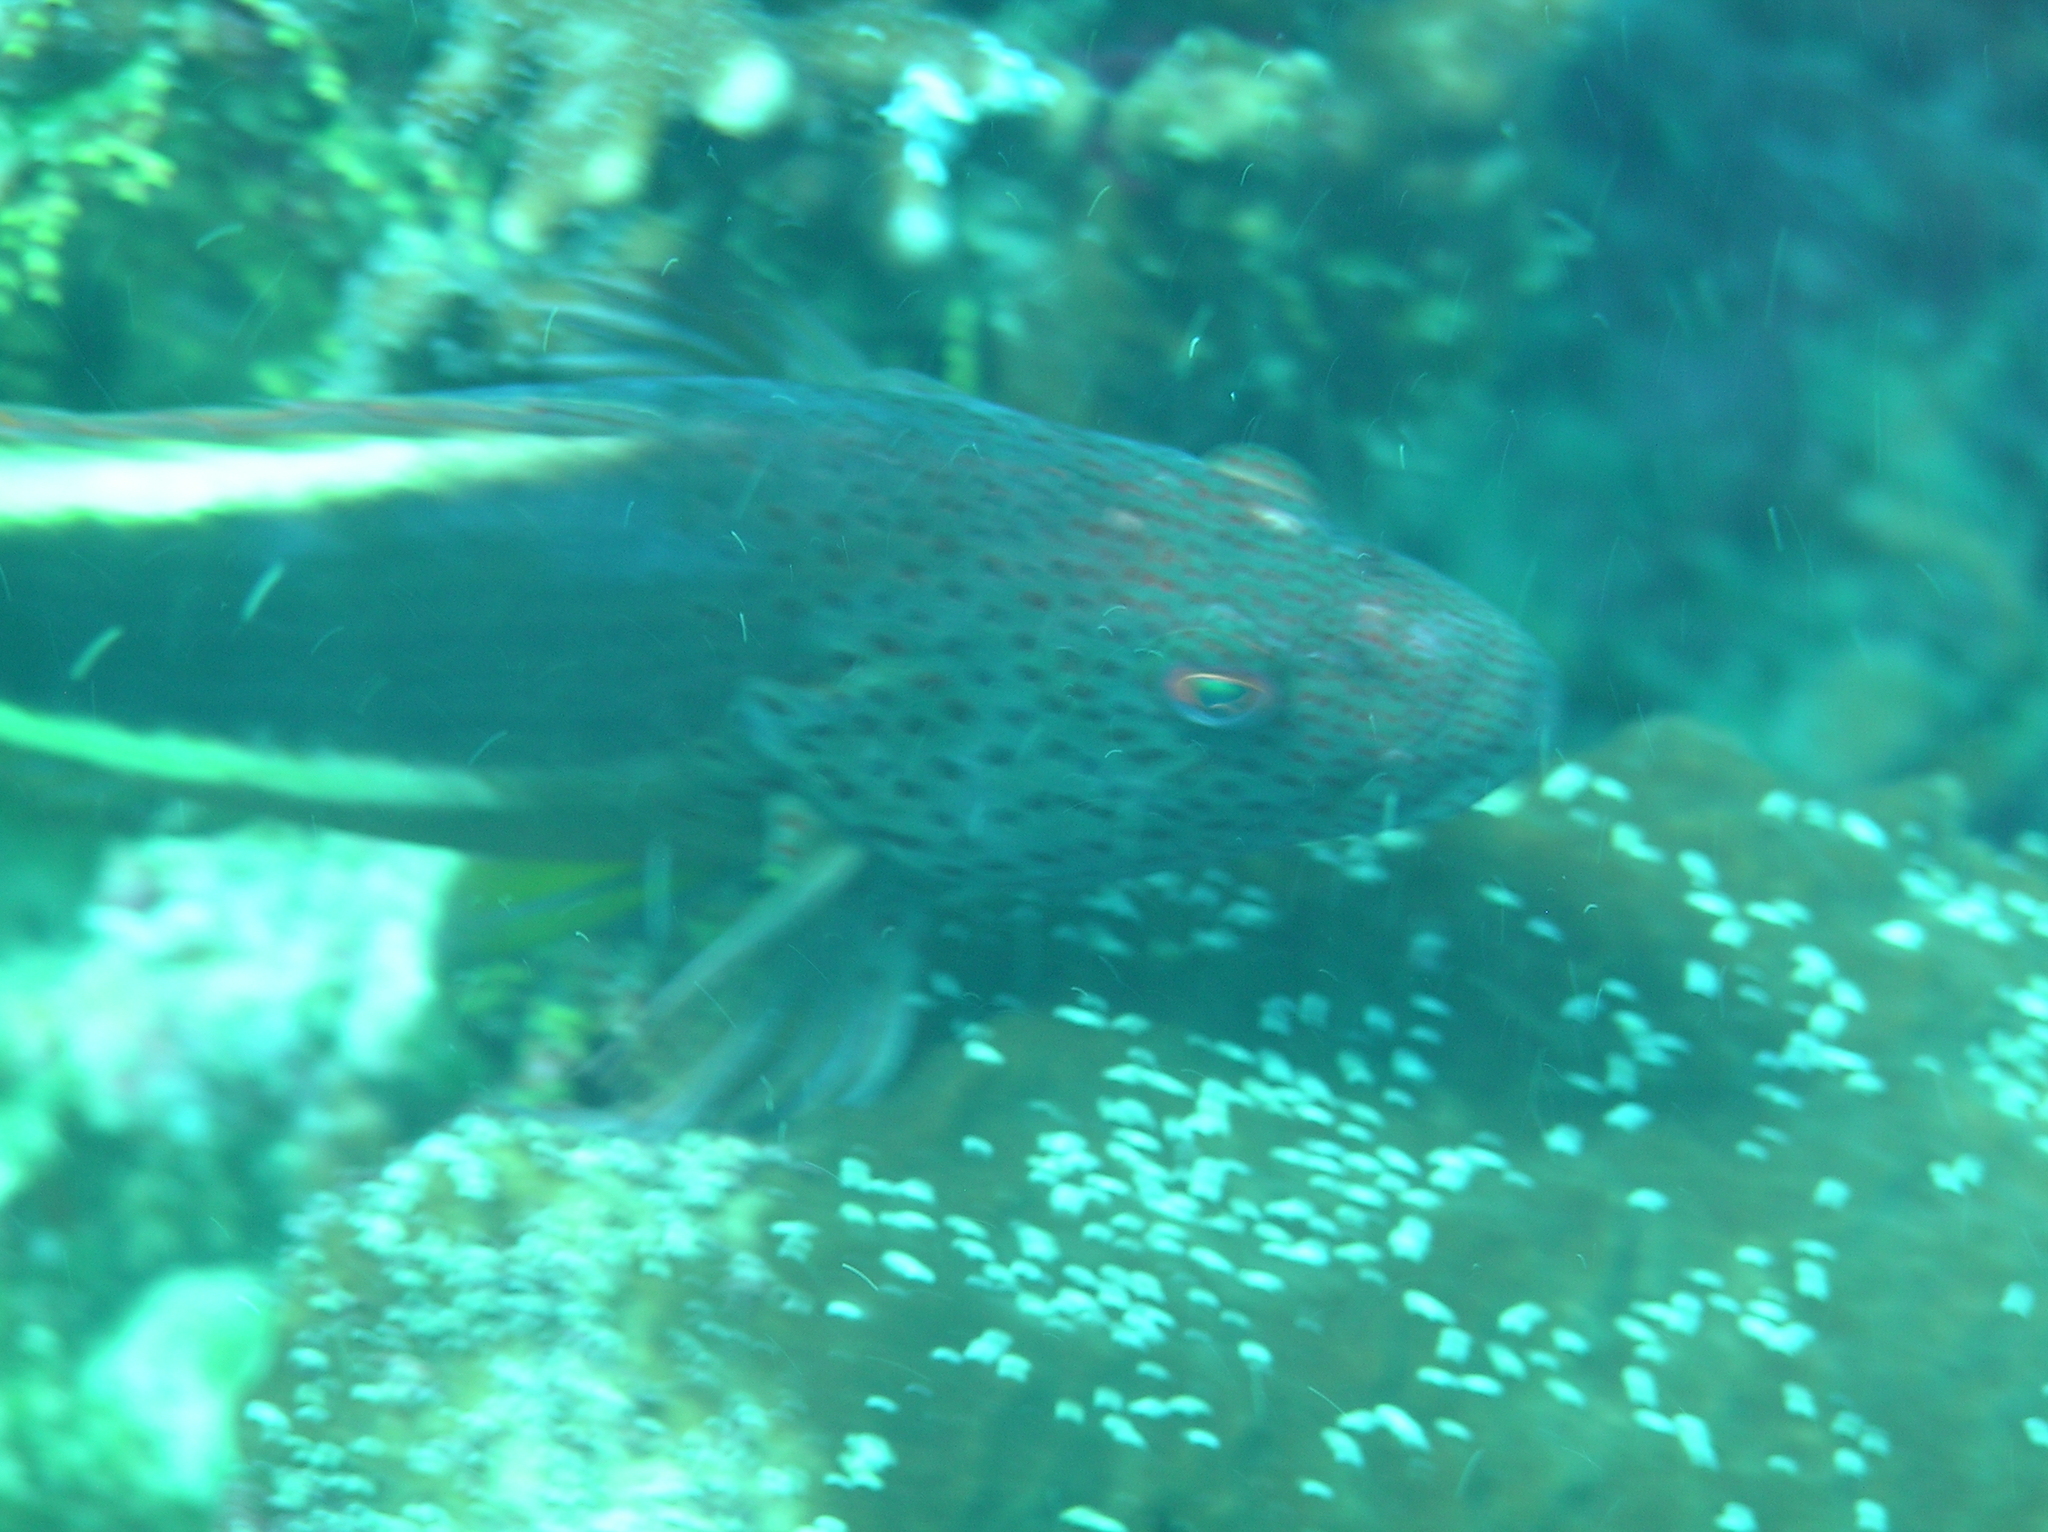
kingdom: Animalia
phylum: Chordata
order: Perciformes
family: Cirrhitidae
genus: Paracirrhites
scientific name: Paracirrhites forsteri
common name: Freckled hawkfish
